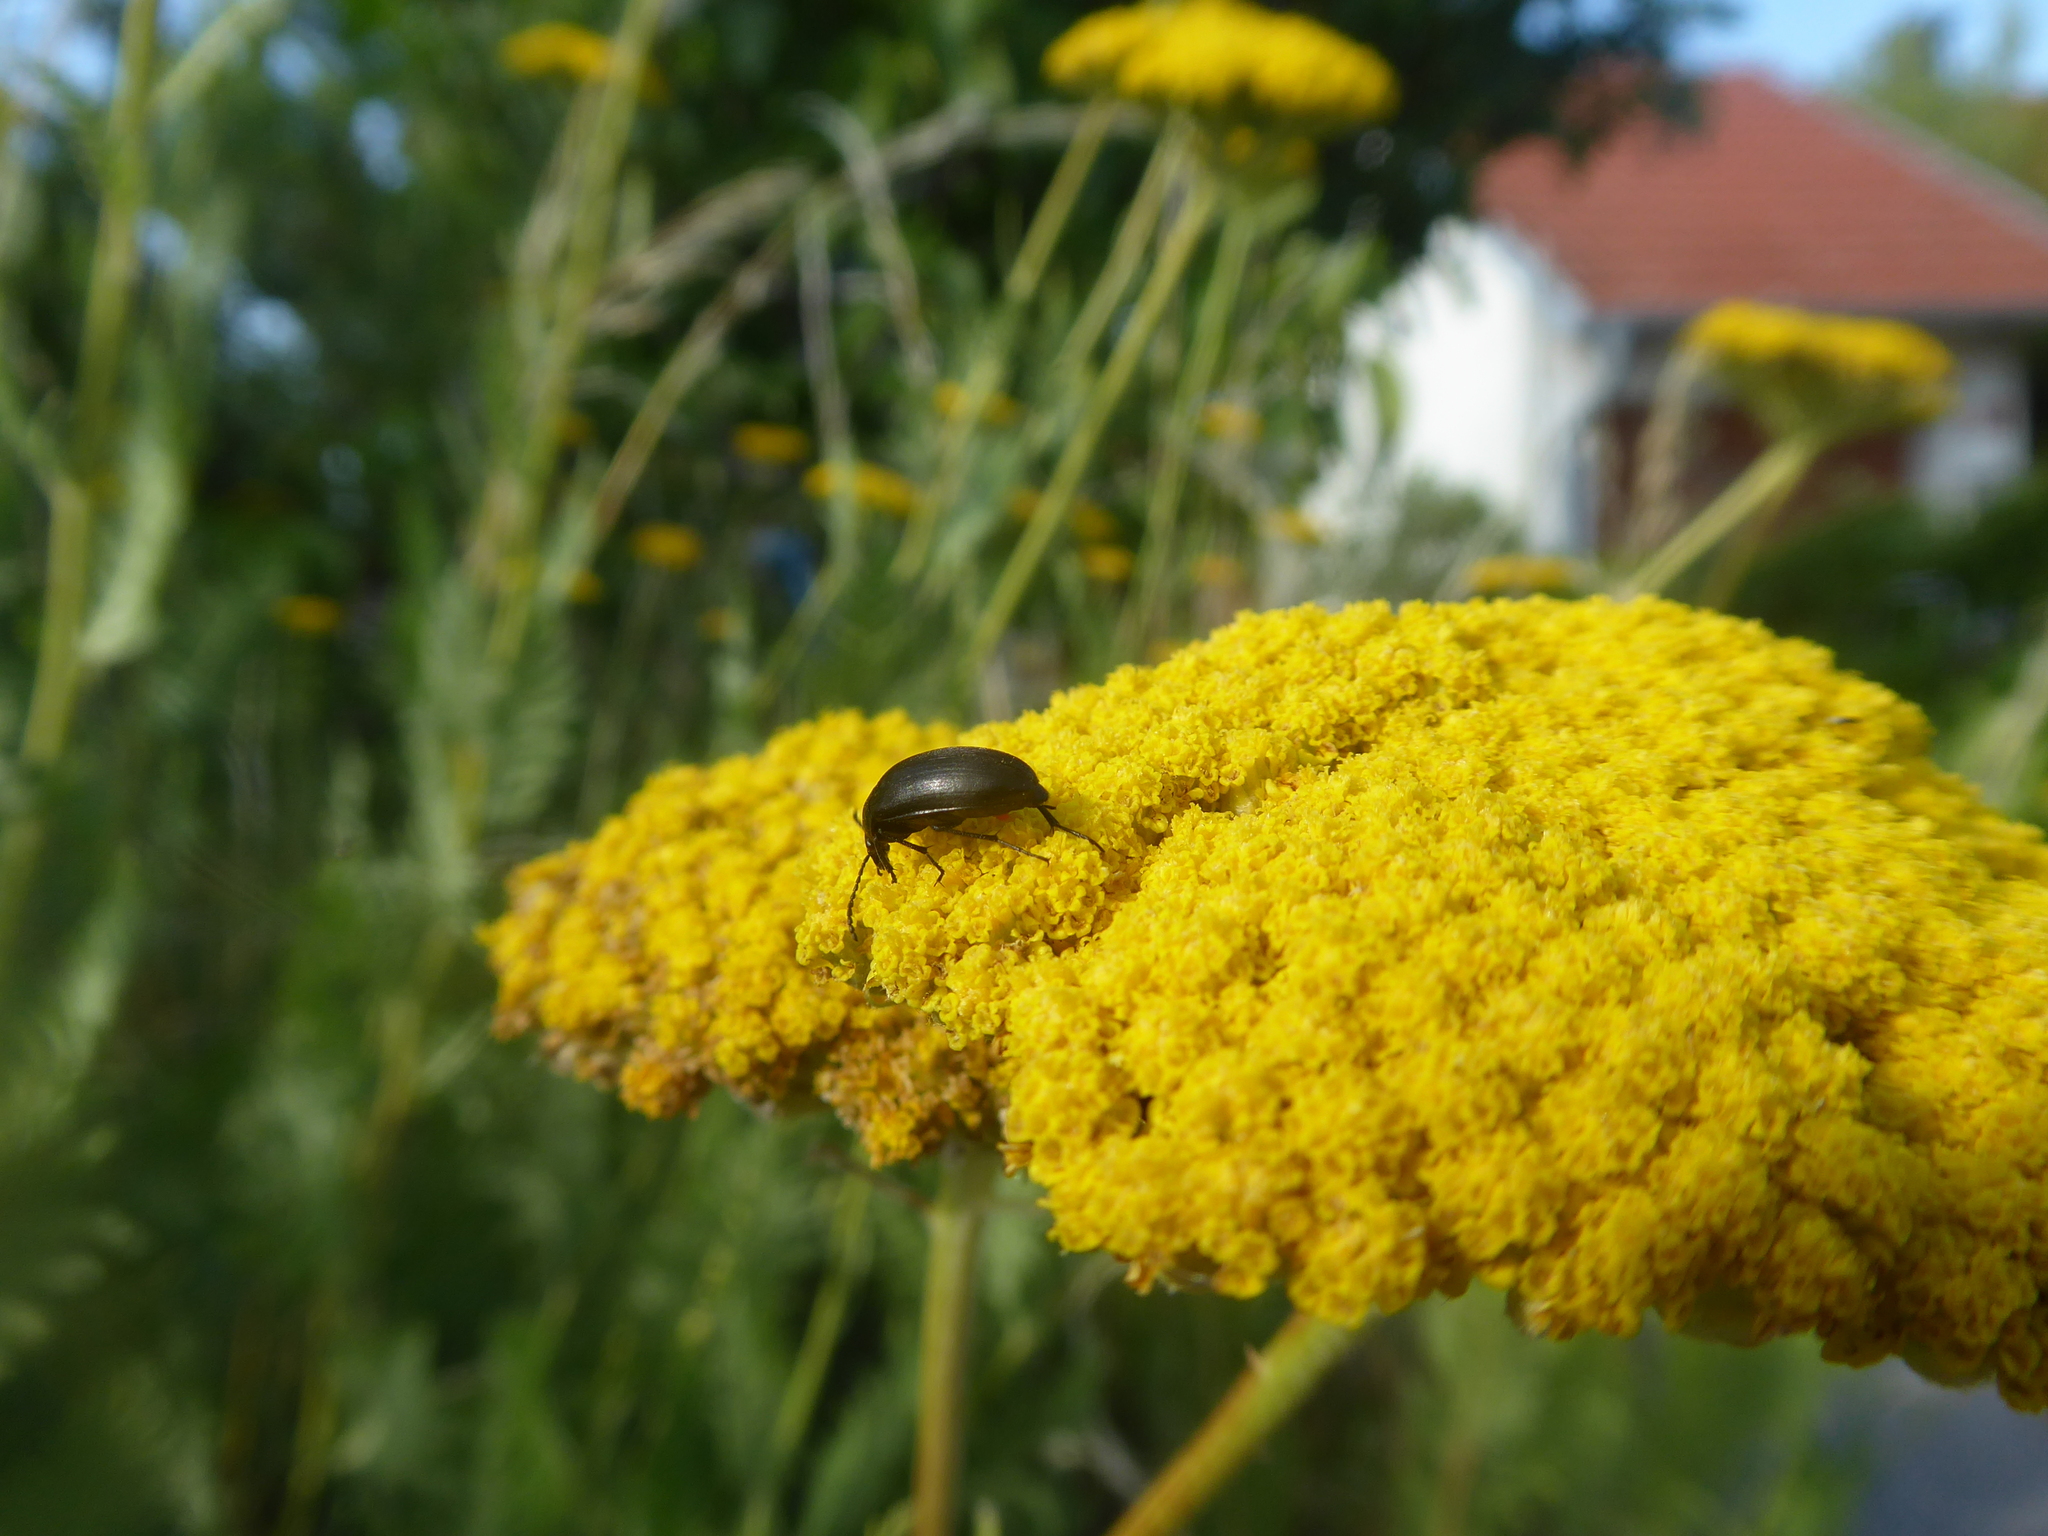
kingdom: Animalia
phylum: Arthropoda
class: Insecta
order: Coleoptera
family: Tenebrionidae
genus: Podonta
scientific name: Podonta nigrita
